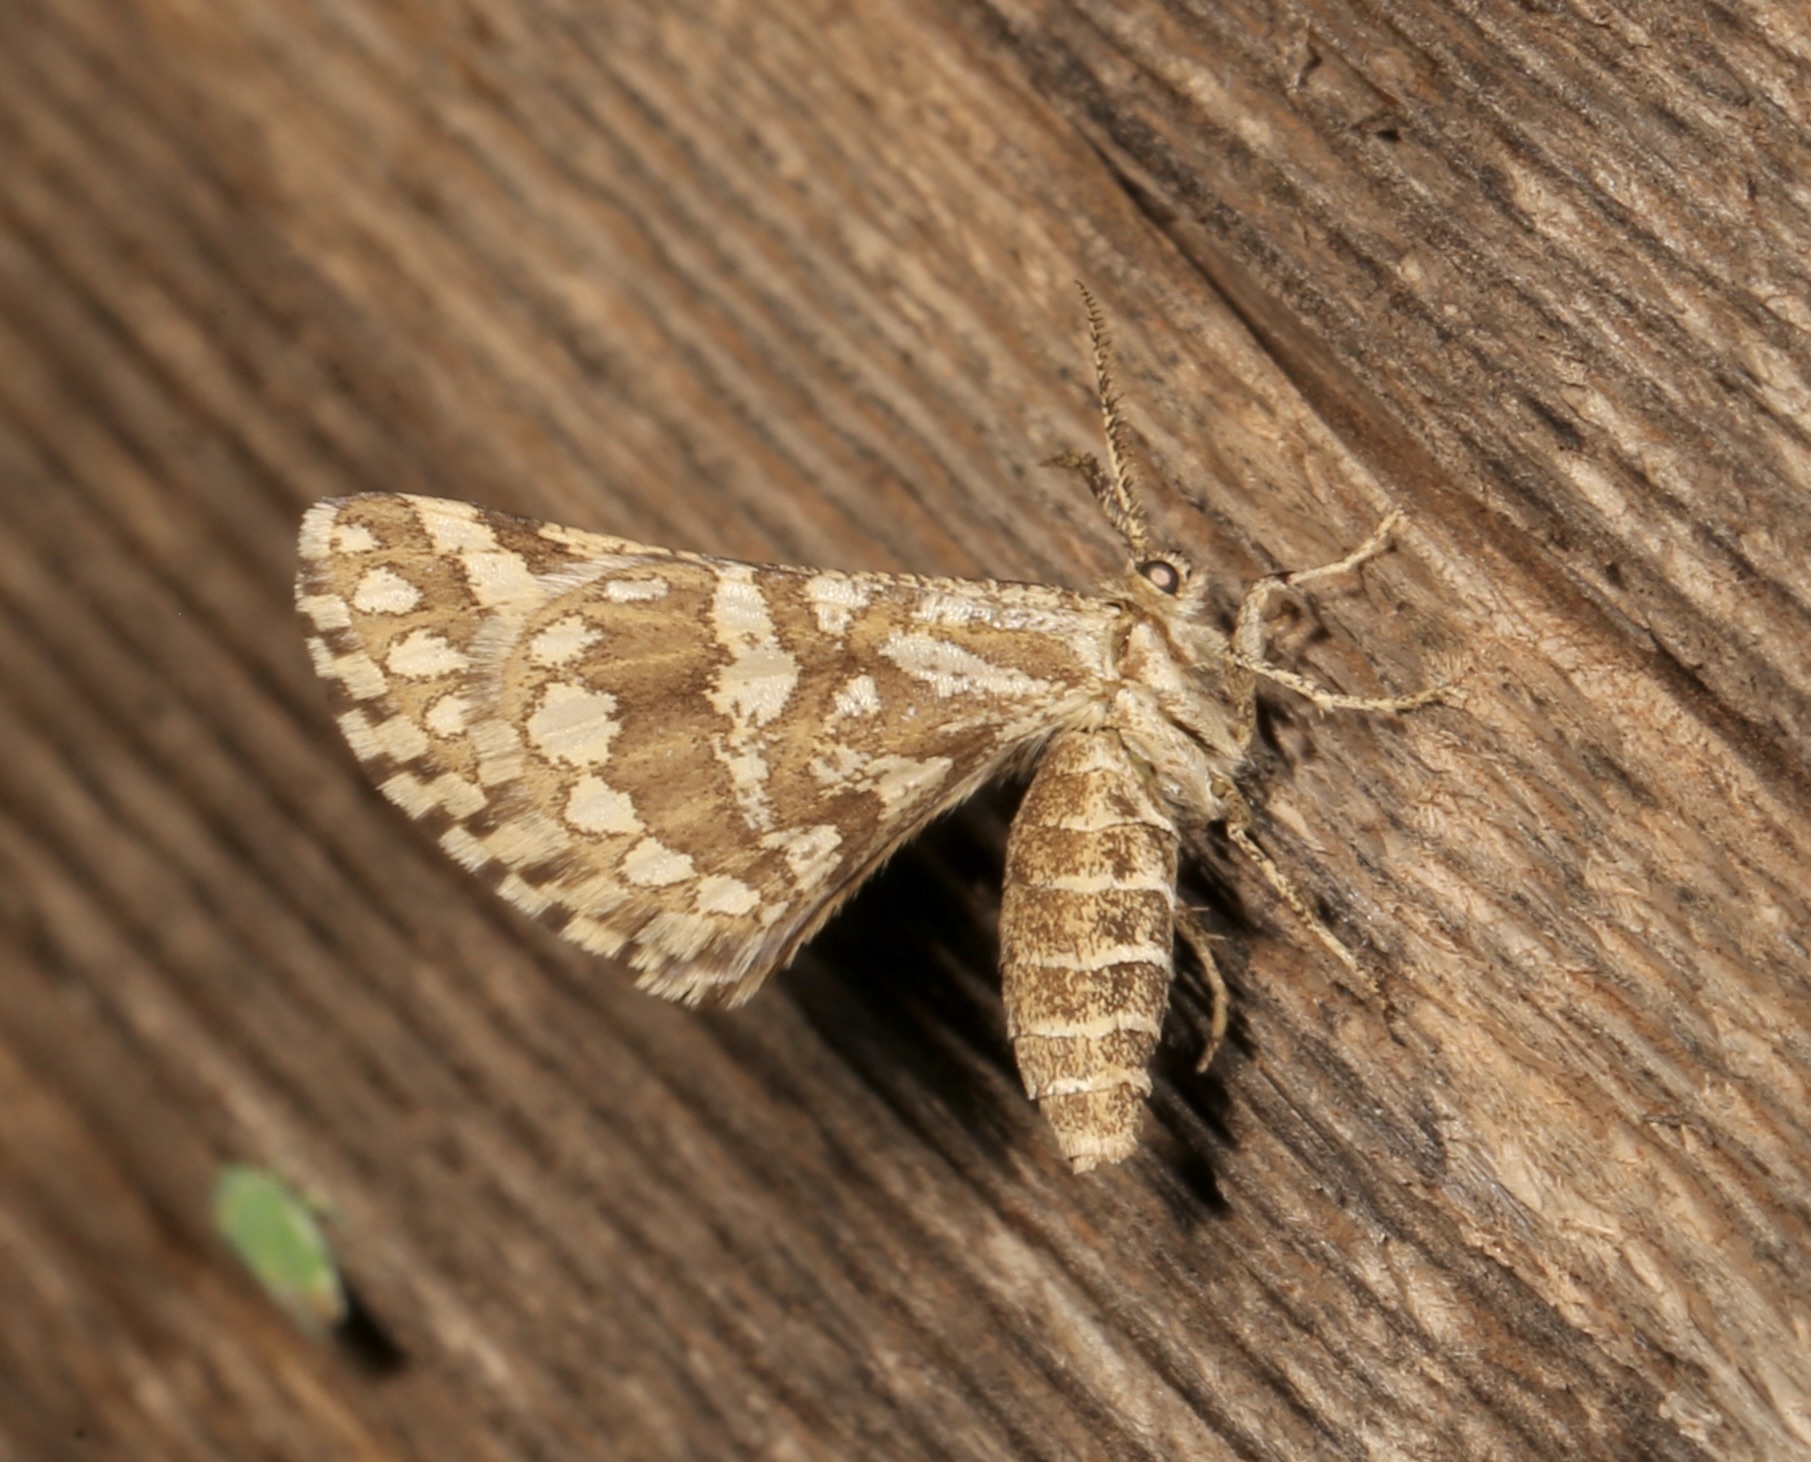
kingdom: Animalia
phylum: Arthropoda
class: Insecta
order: Lepidoptera
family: Geometridae
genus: Narraga
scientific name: Narraga fimetaria
